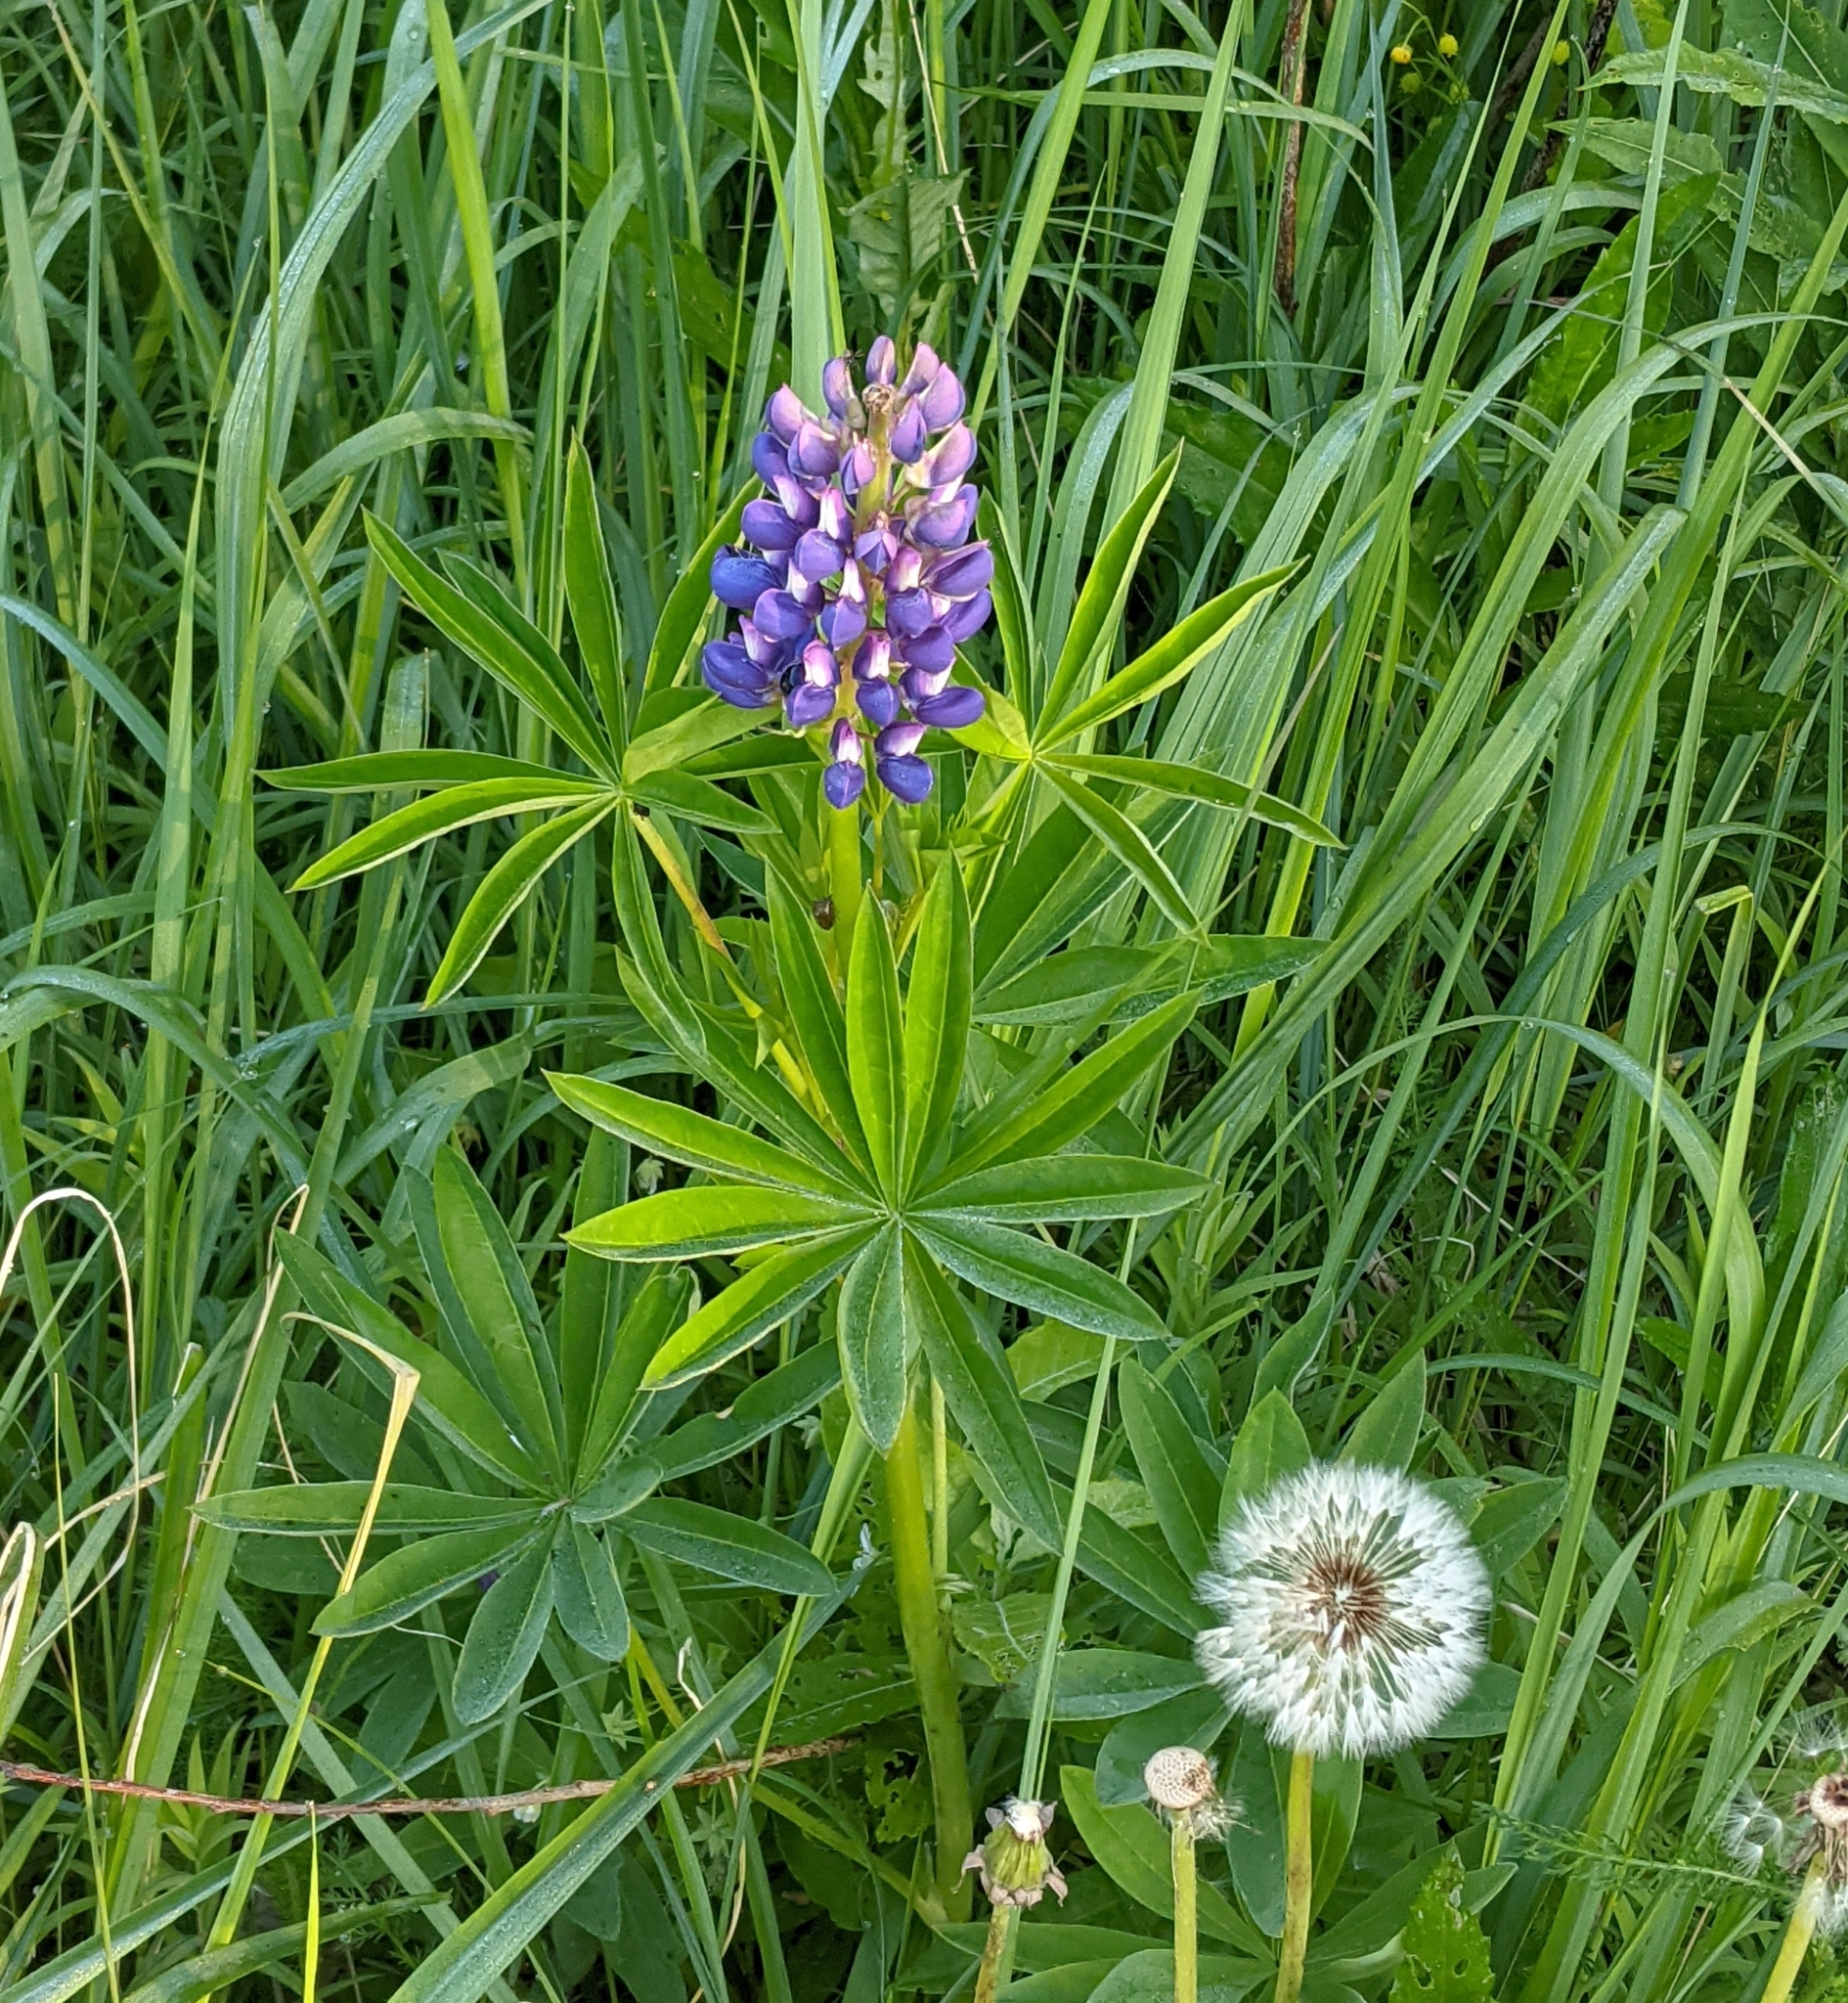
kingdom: Plantae
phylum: Tracheophyta
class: Magnoliopsida
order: Fabales
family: Fabaceae
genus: Lupinus
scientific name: Lupinus polyphyllus
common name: Garden lupin
